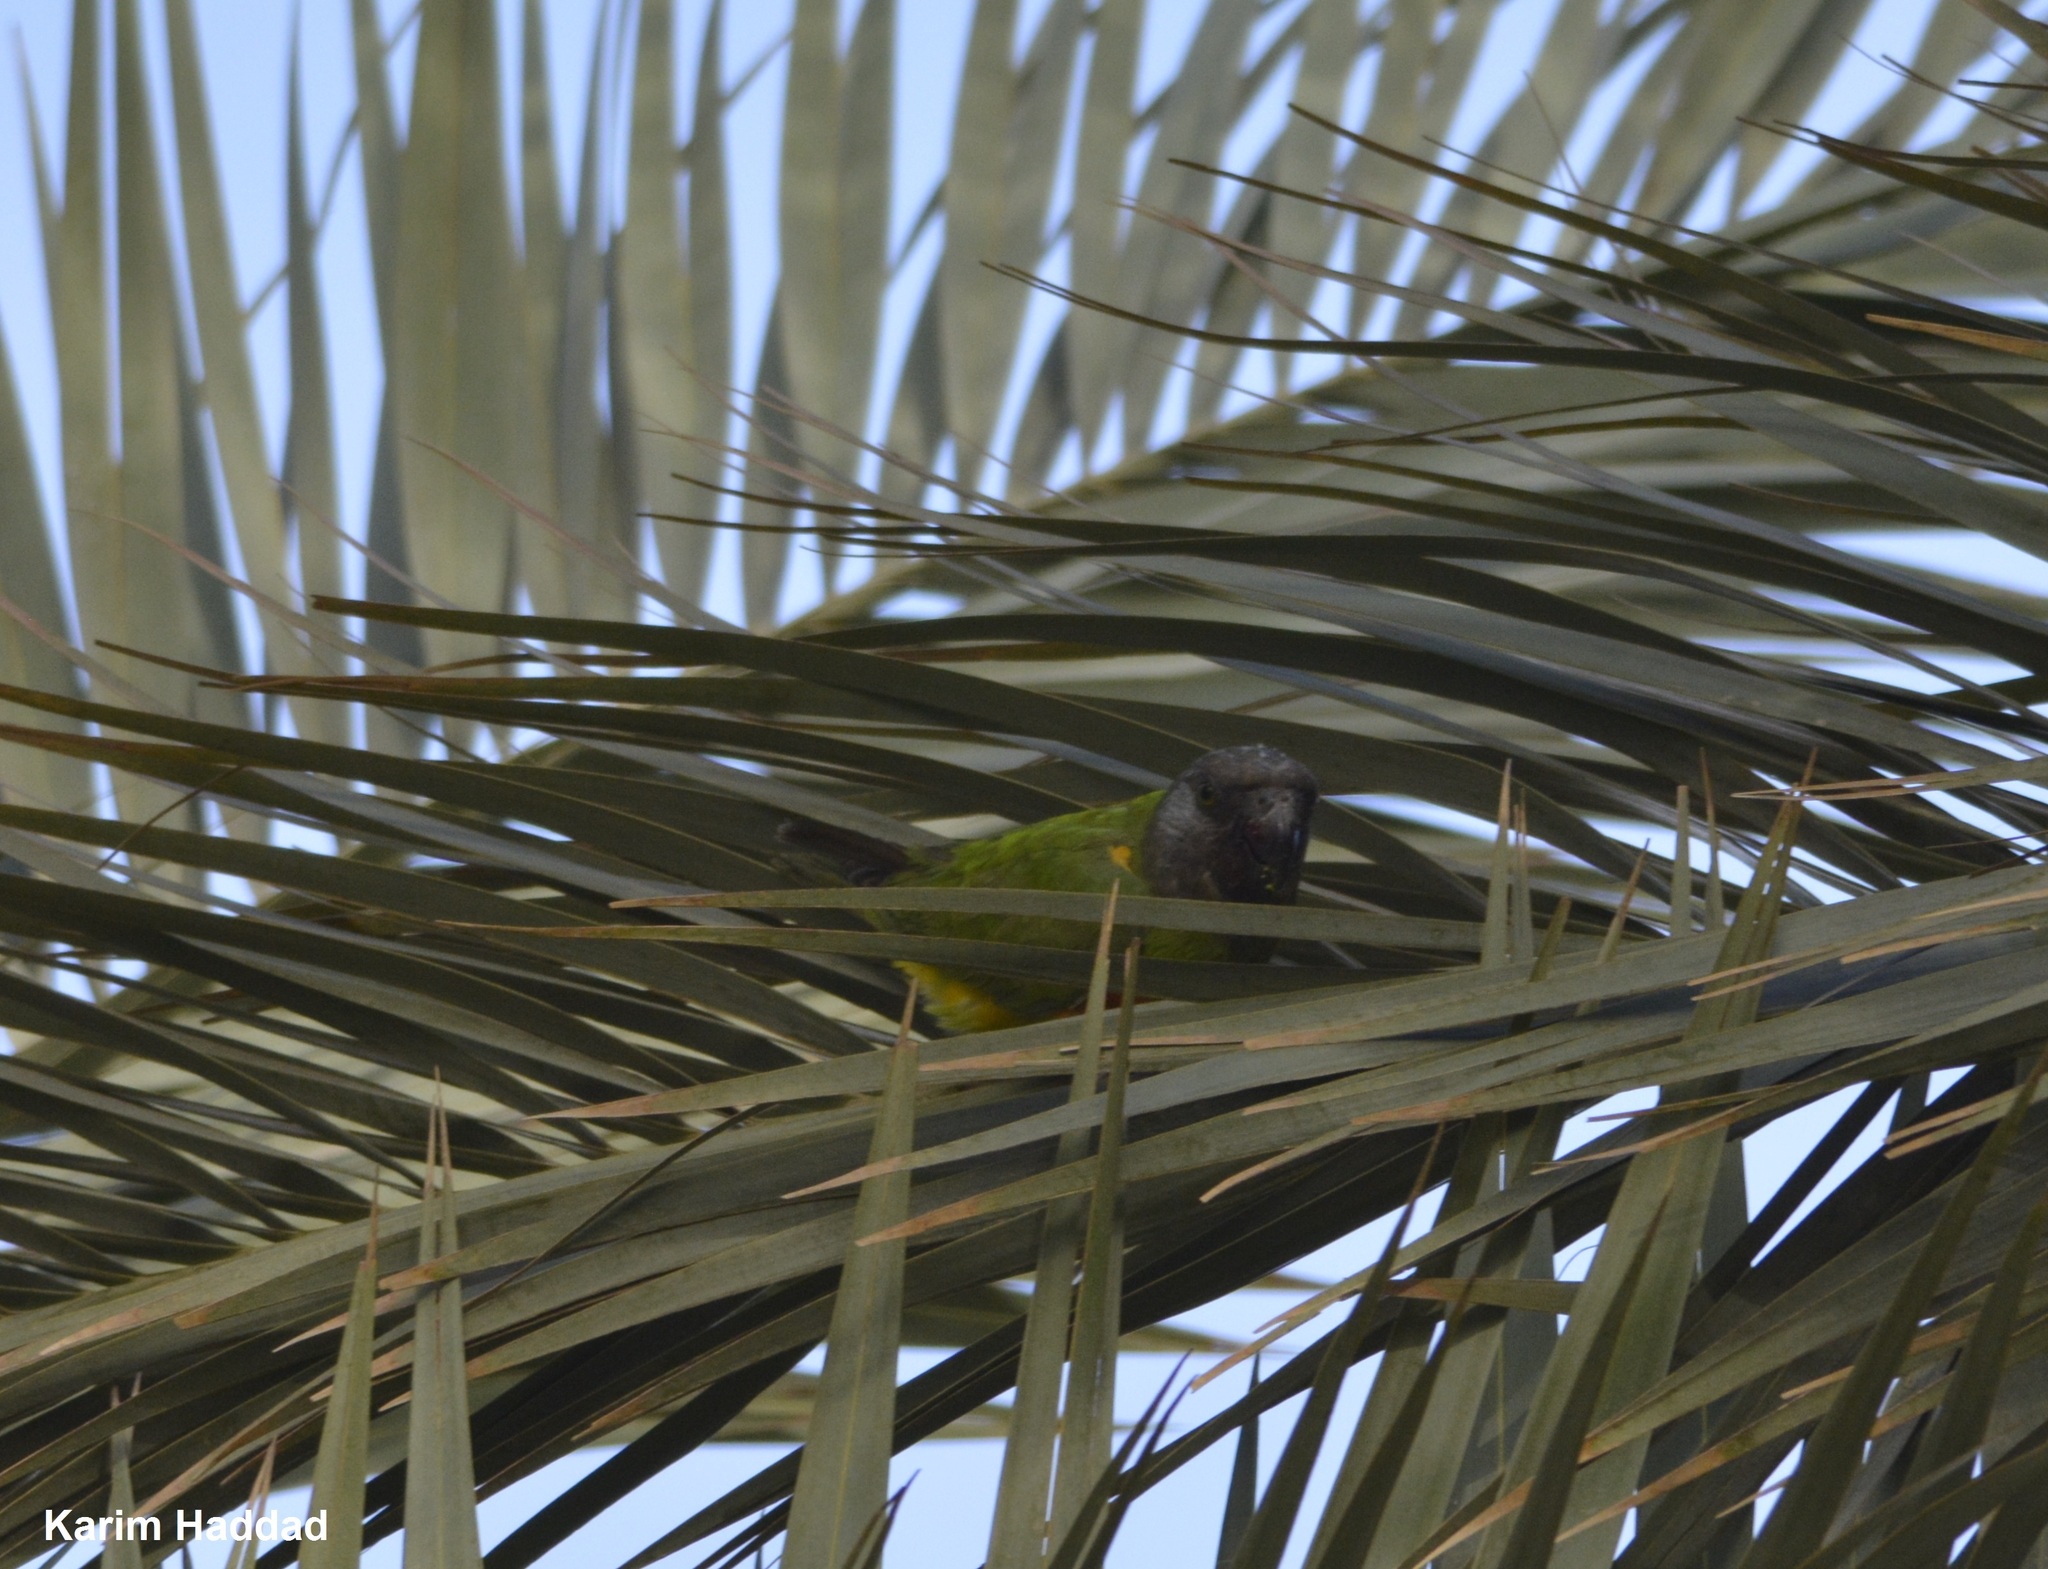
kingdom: Animalia
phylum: Chordata
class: Aves
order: Psittaciformes
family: Psittacidae
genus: Poicephalus
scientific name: Poicephalus senegalus
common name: Senegal parrot
